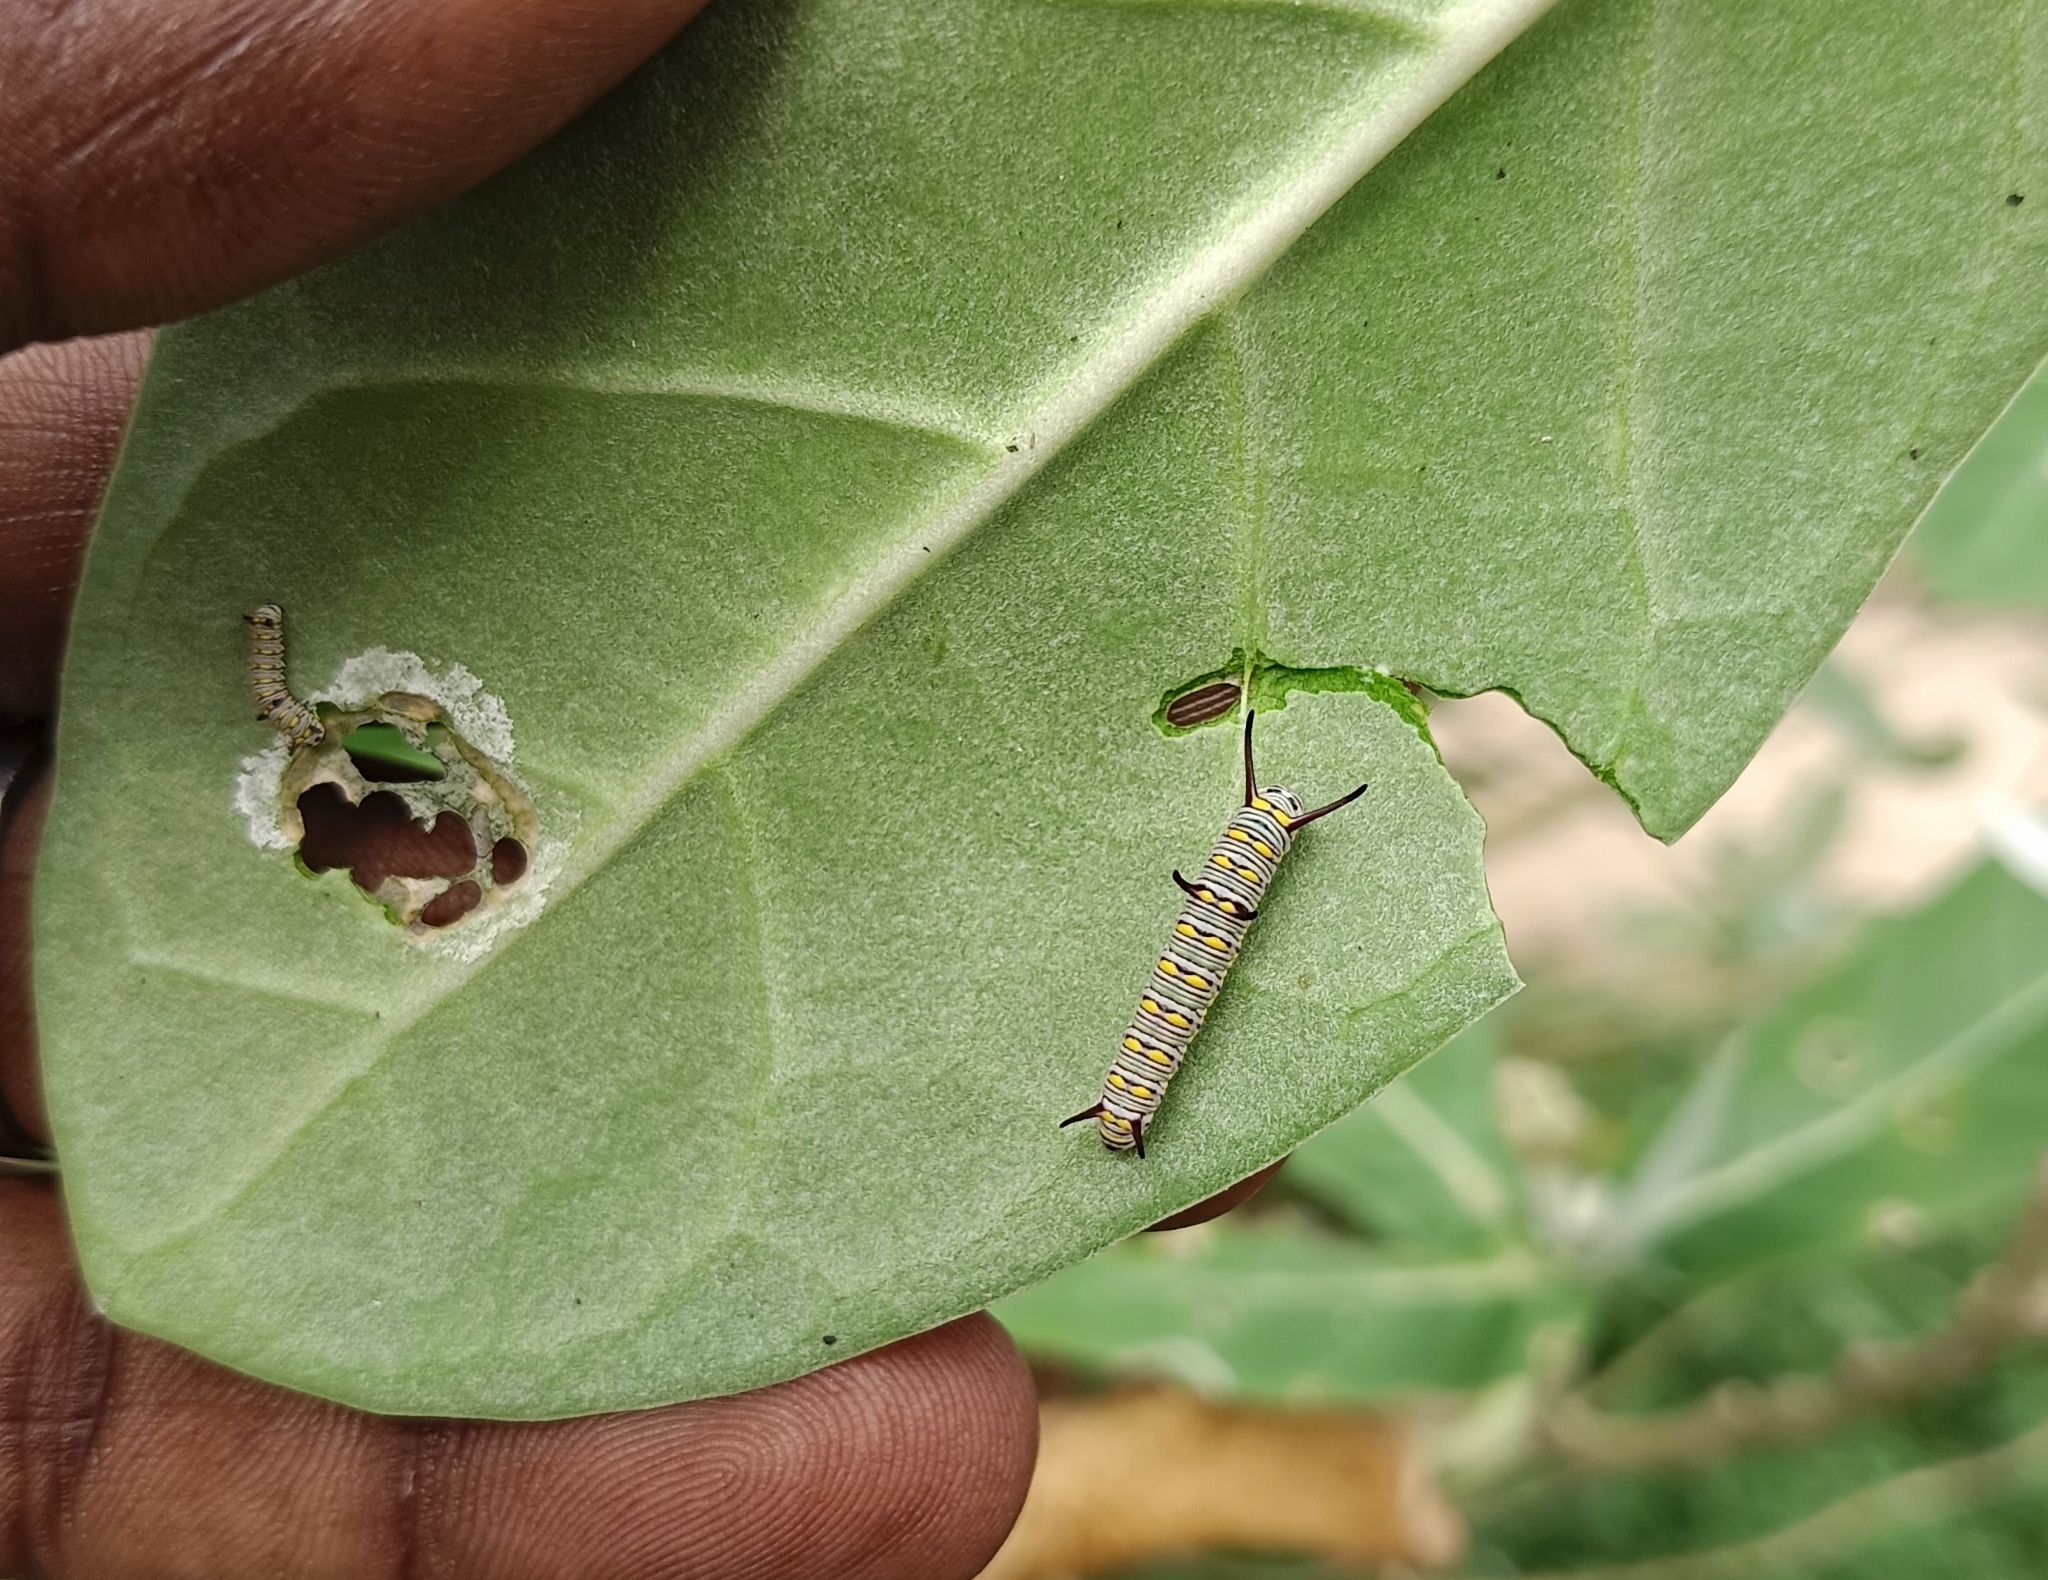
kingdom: Animalia
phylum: Arthropoda
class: Insecta
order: Lepidoptera
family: Nymphalidae
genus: Danaus
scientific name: Danaus chrysippus
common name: Plain tiger
